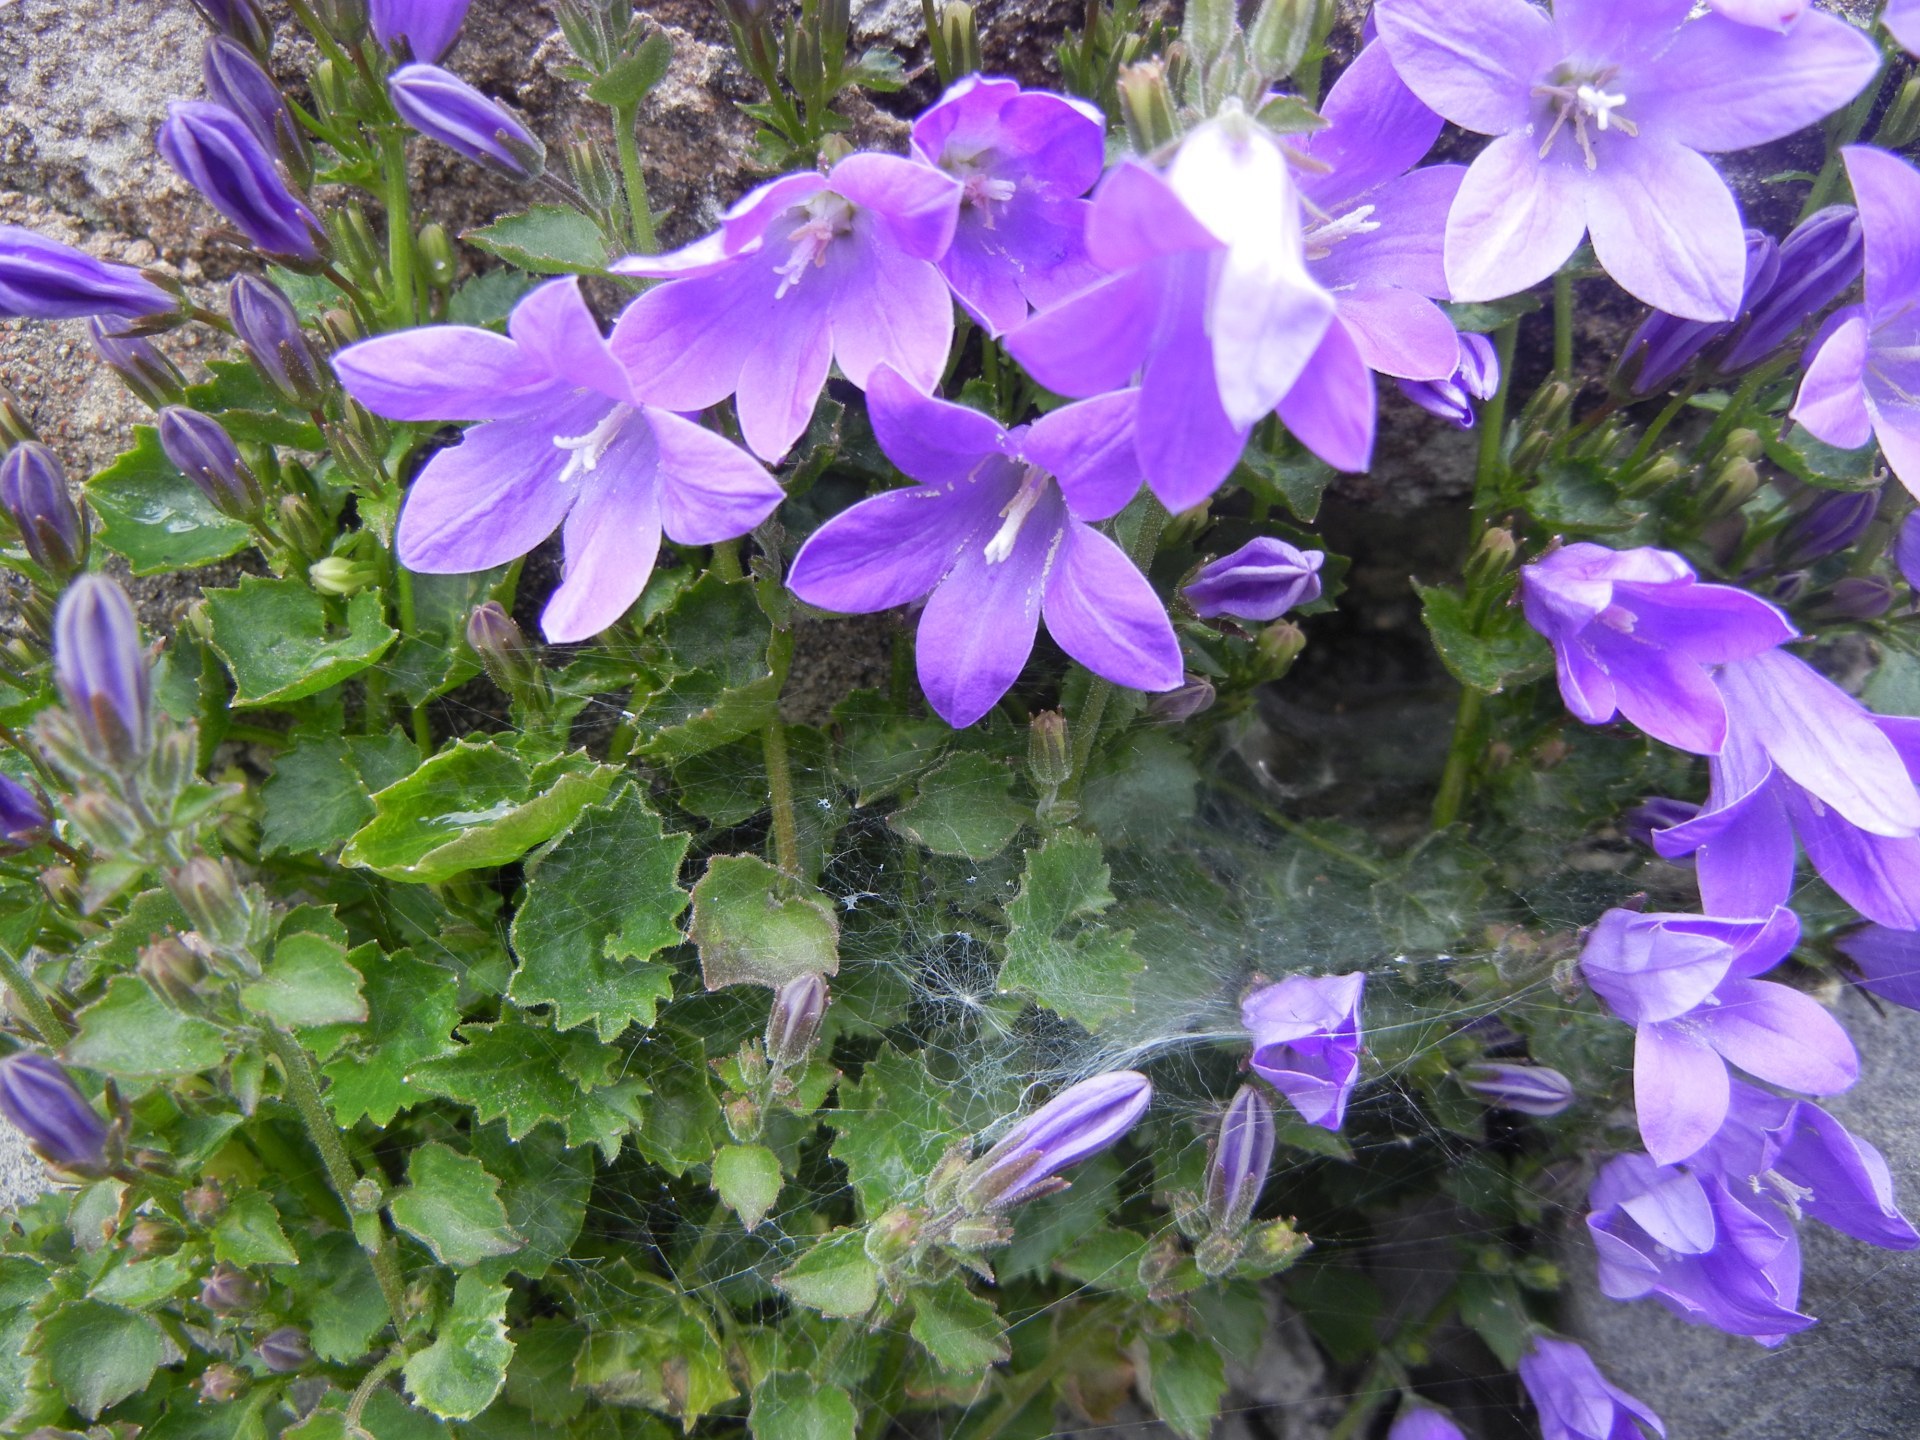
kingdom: Plantae
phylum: Tracheophyta
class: Magnoliopsida
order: Asterales
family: Campanulaceae
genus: Campanula
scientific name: Campanula portenschlagiana
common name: Adria bellflower
